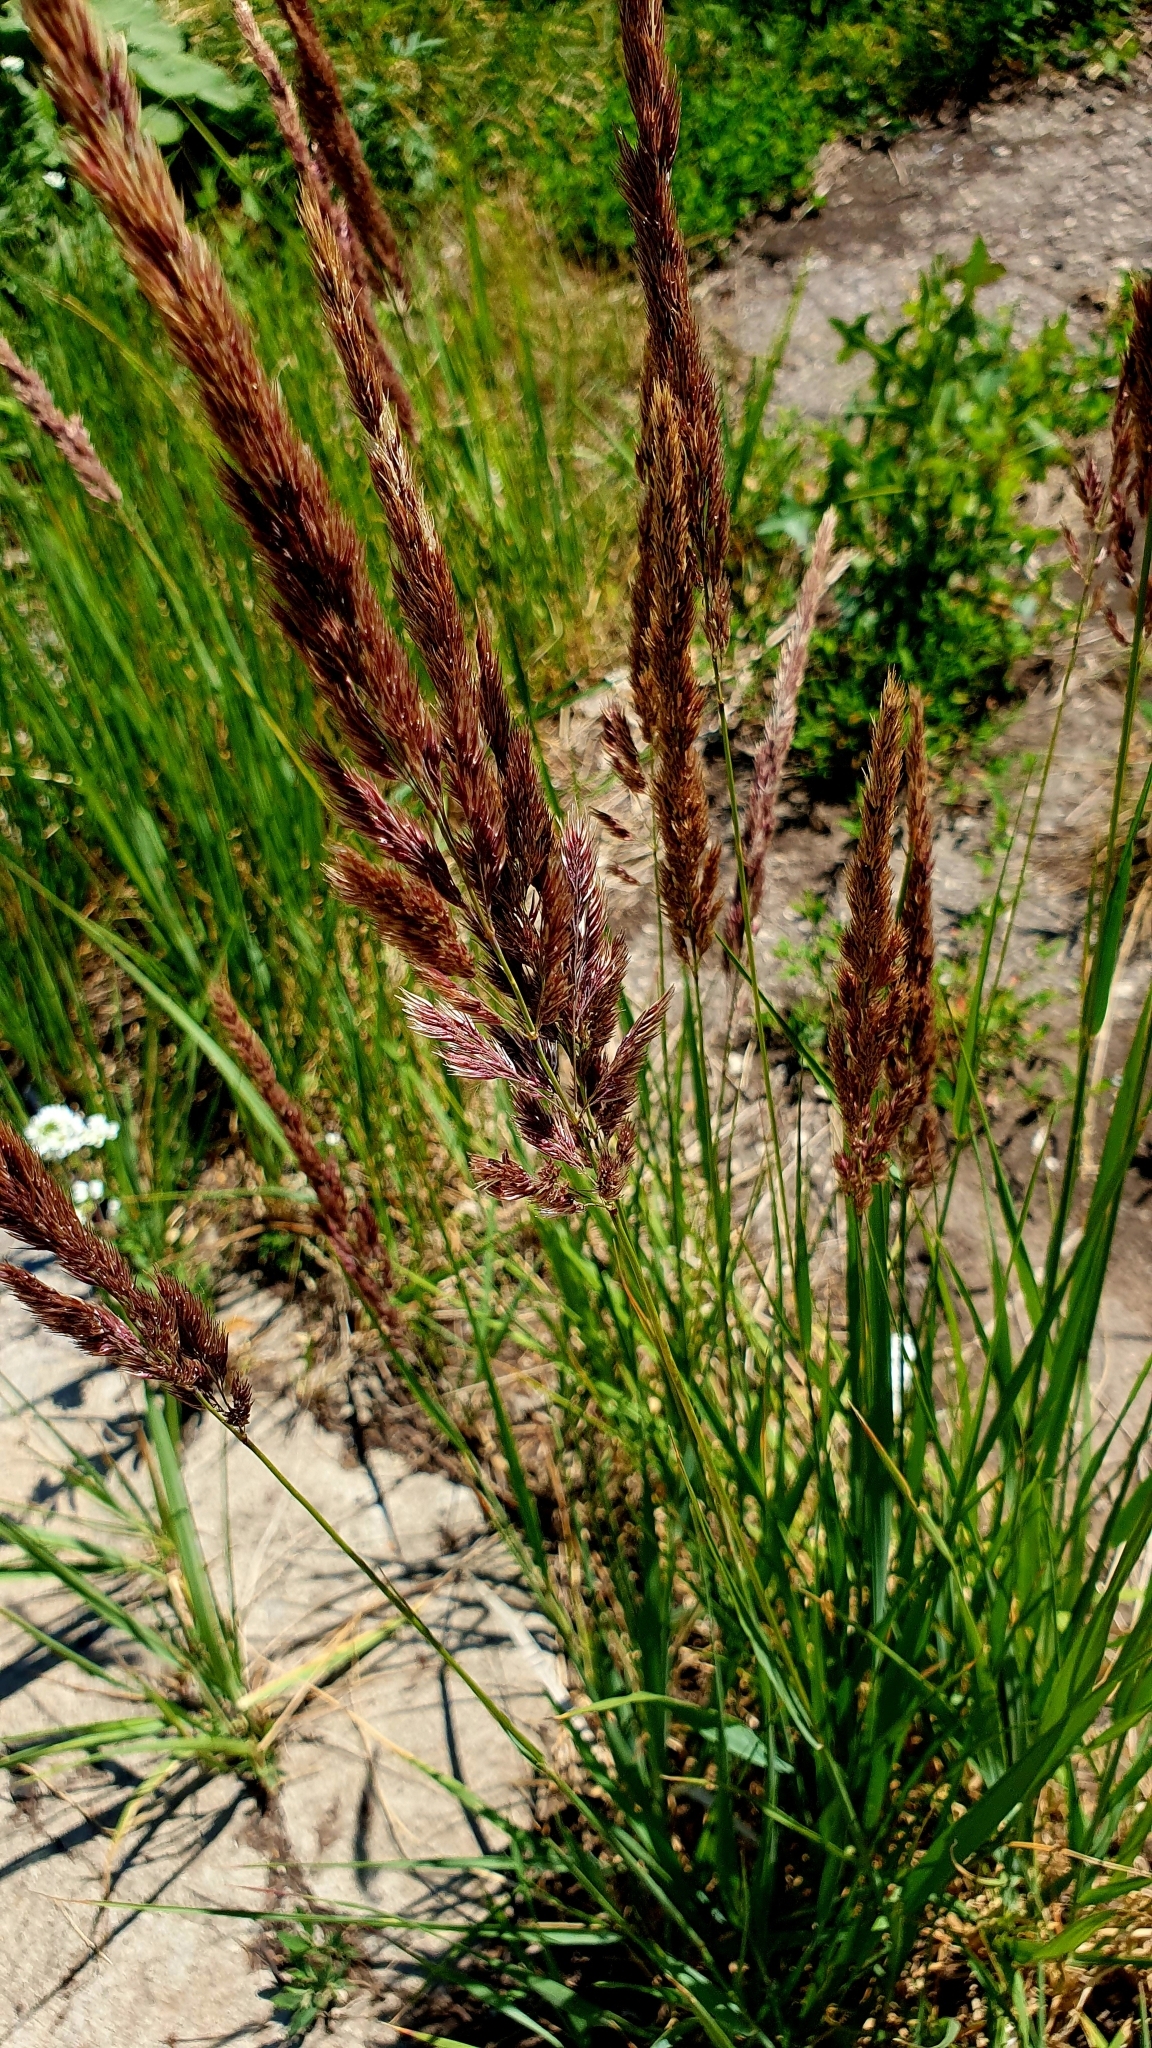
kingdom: Plantae
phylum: Tracheophyta
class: Liliopsida
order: Poales
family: Poaceae
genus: Calamagrostis
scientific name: Calamagrostis epigejos
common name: Wood small-reed
